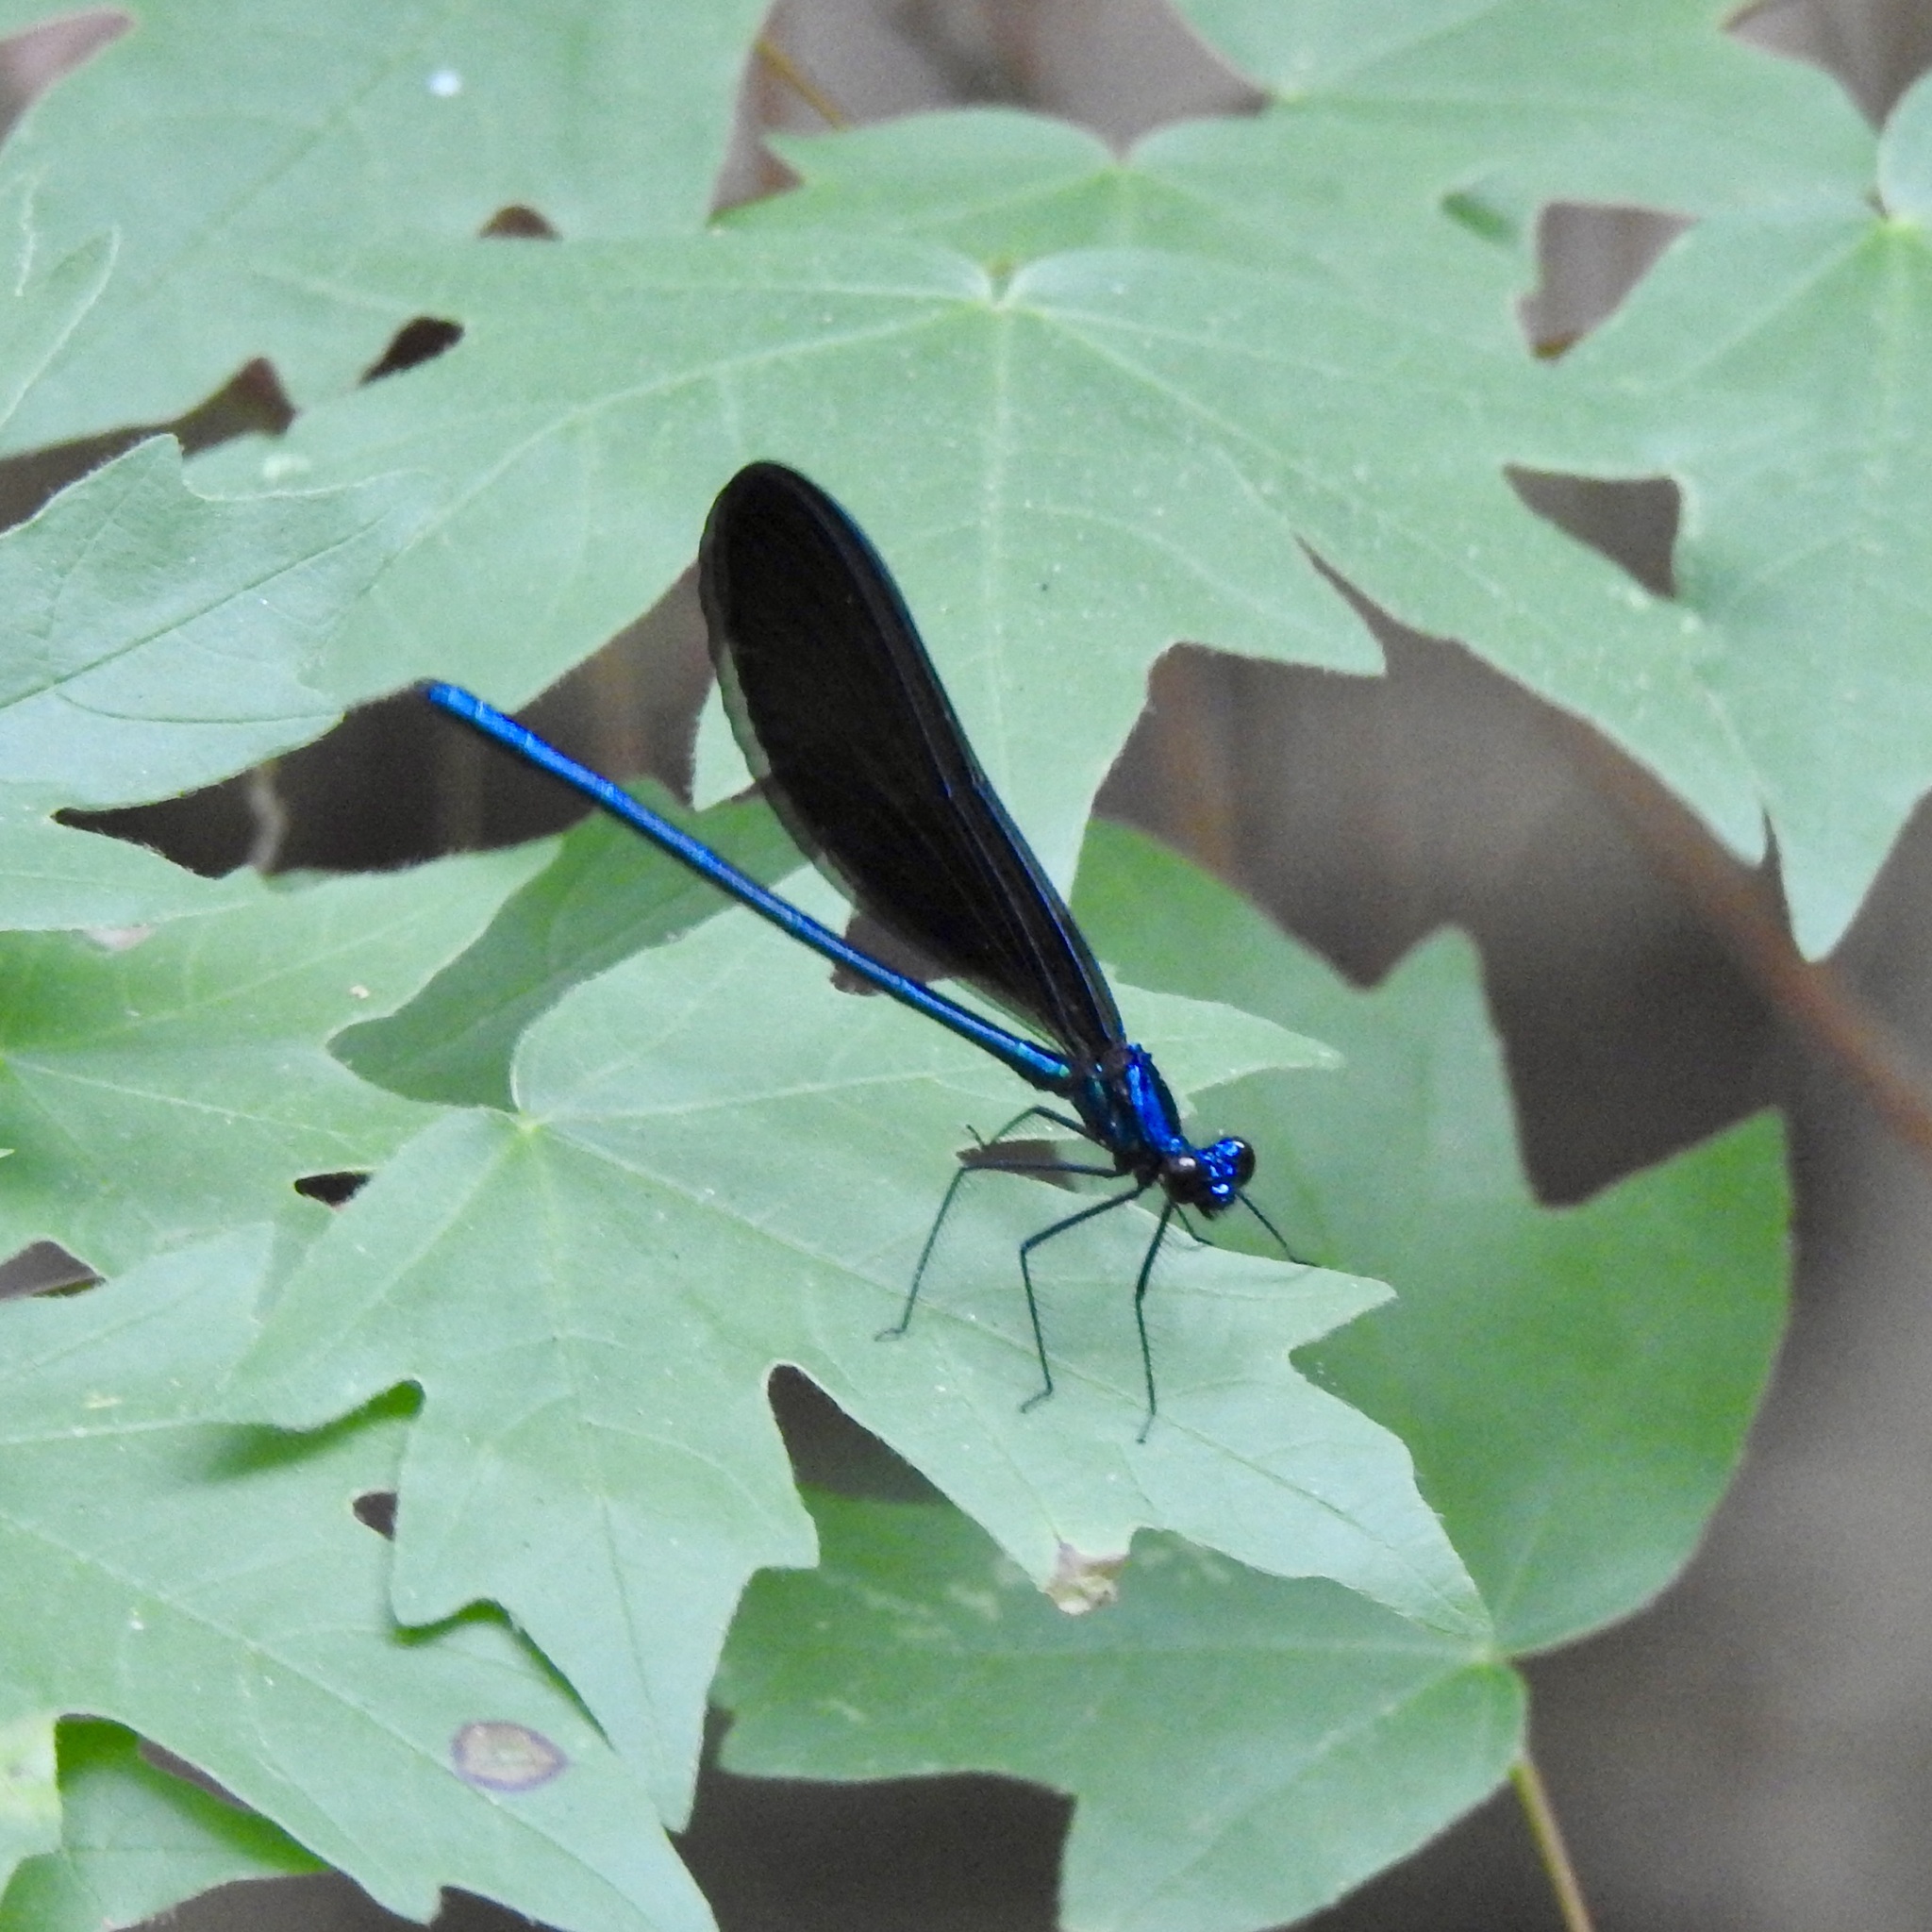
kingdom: Animalia
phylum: Arthropoda
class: Insecta
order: Odonata
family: Calopterygidae
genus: Calopteryx
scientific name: Calopteryx maculata
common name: Ebony jewelwing
